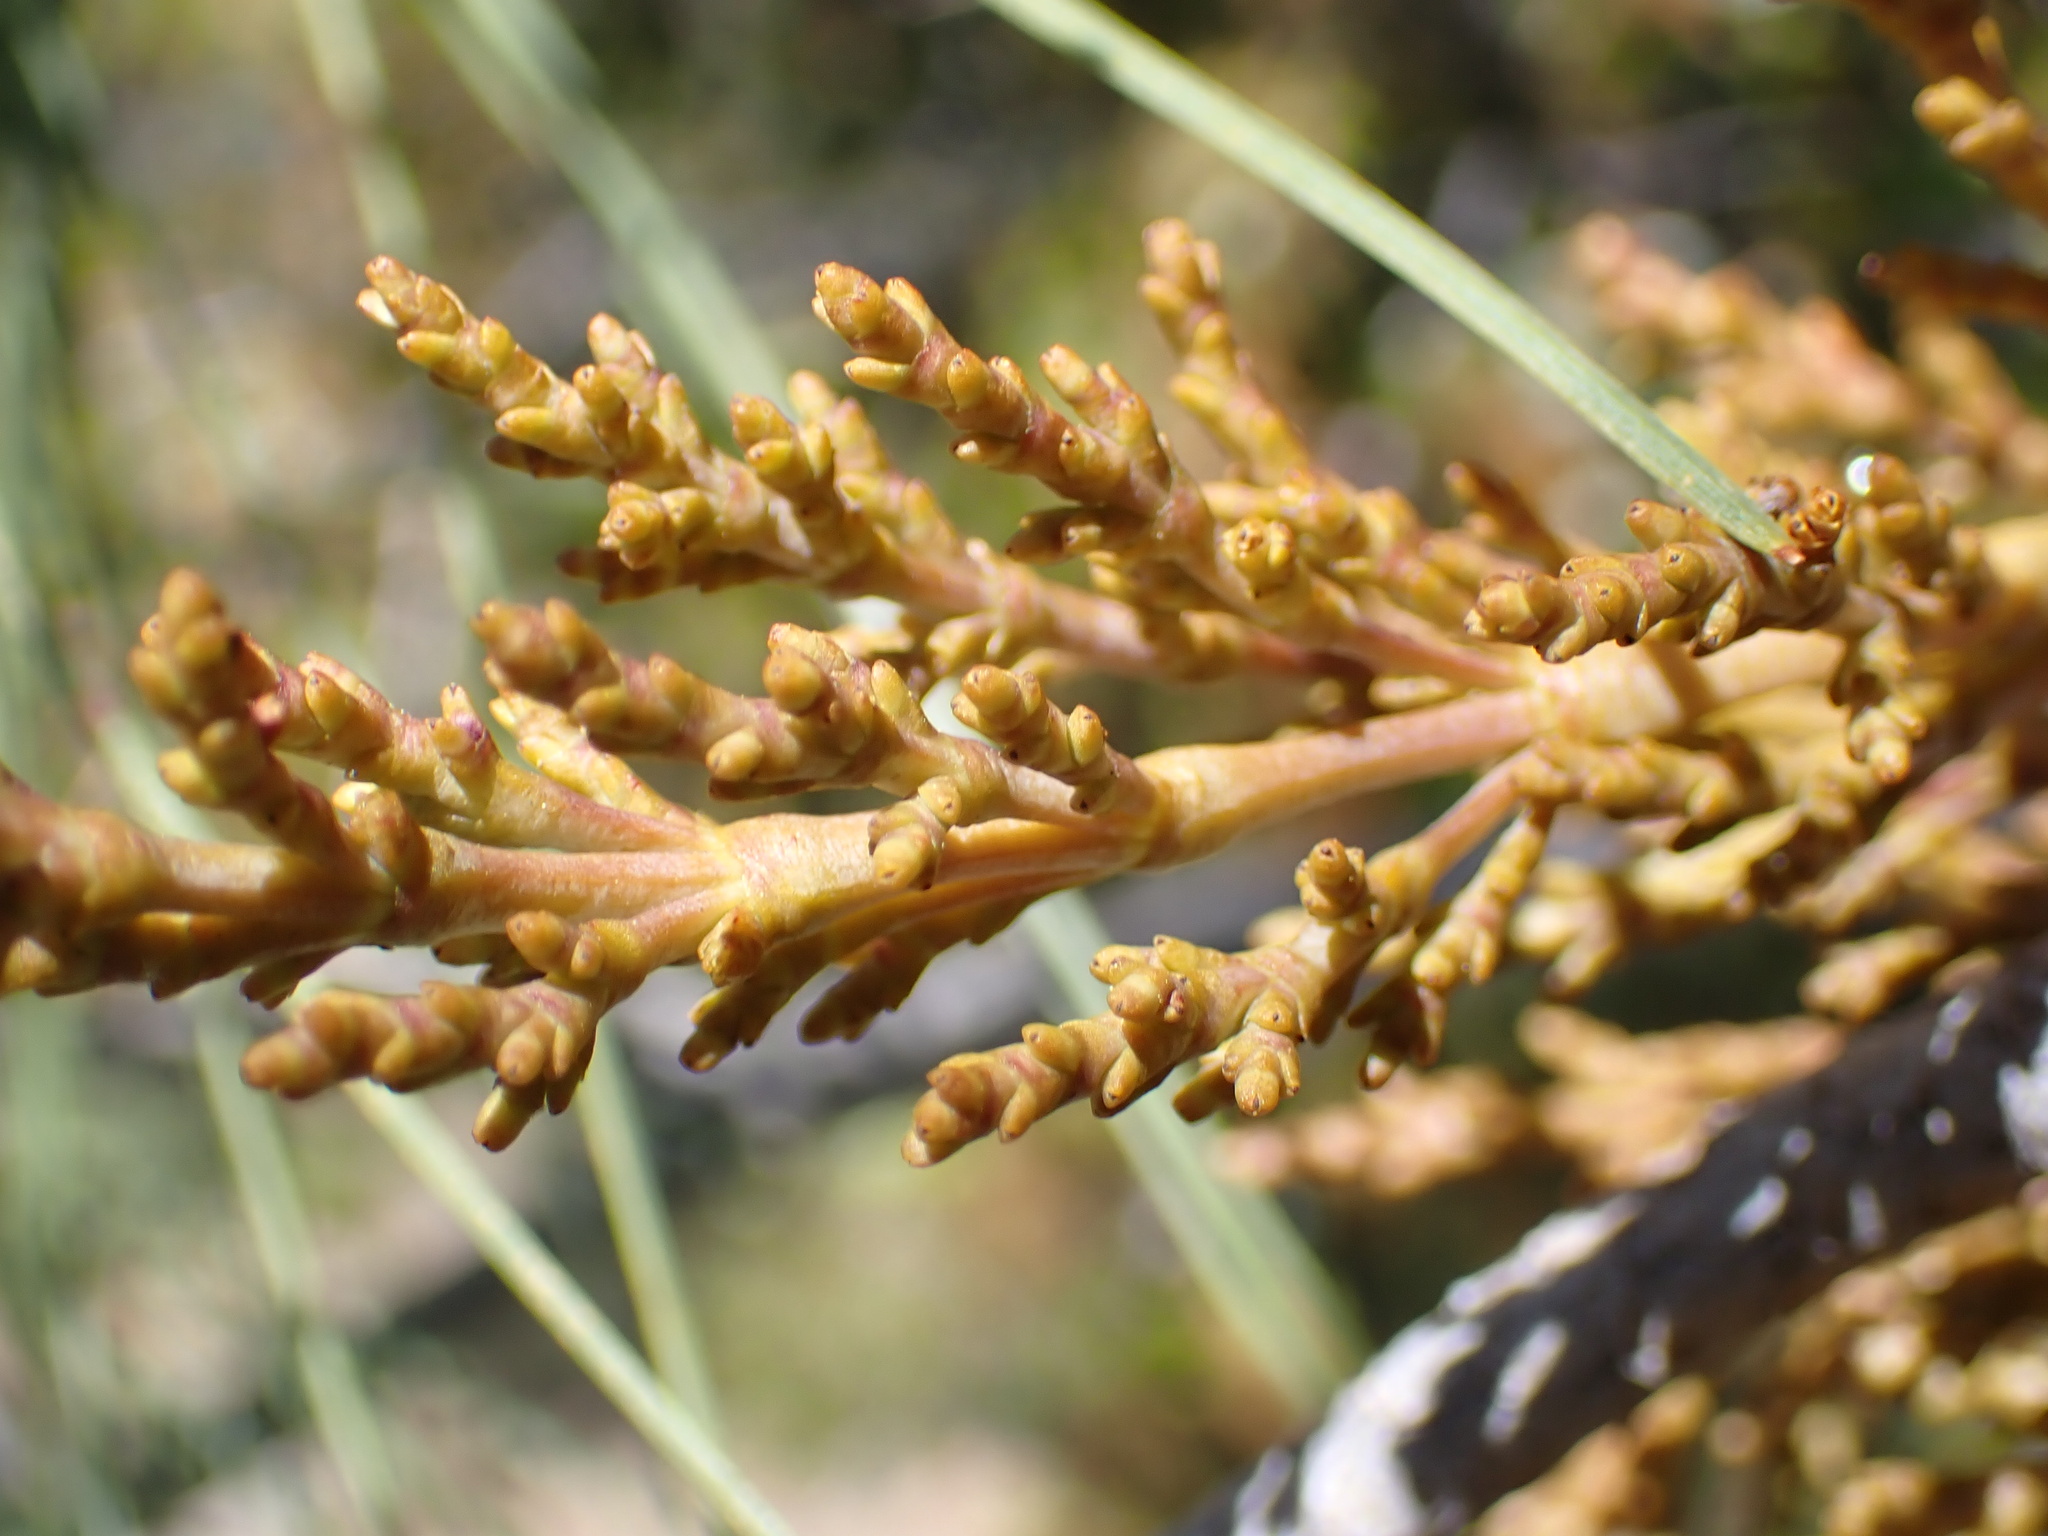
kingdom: Plantae
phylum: Tracheophyta
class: Magnoliopsida
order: Santalales
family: Viscaceae
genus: Arceuthobium
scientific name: Arceuthobium campylopodum
